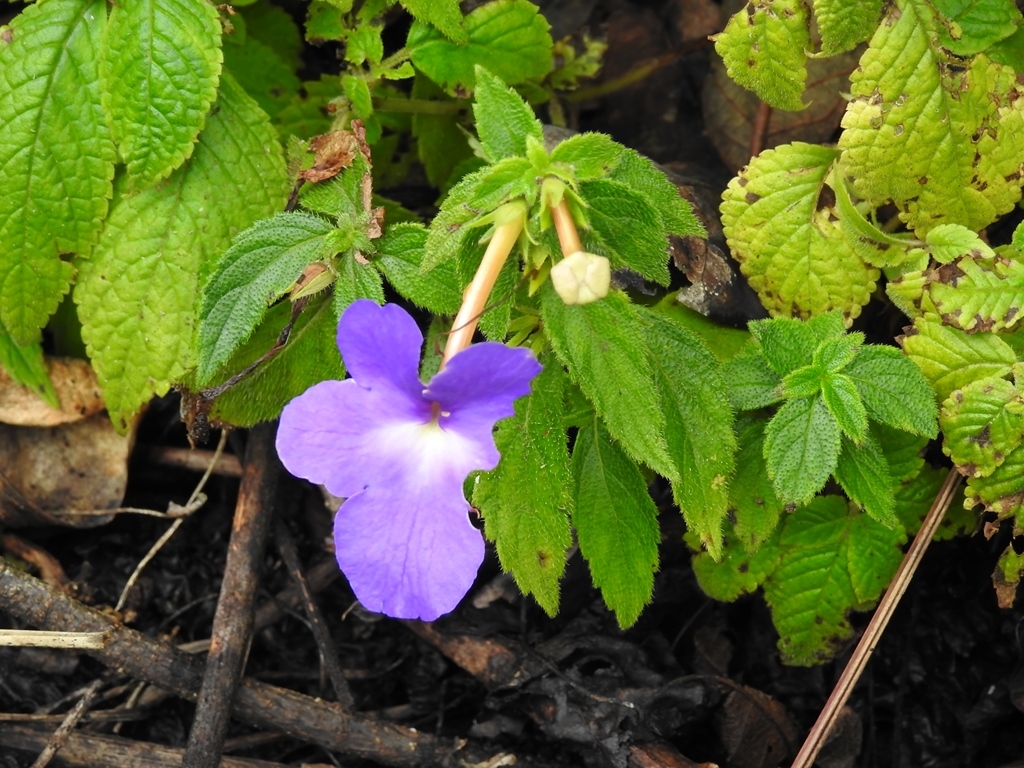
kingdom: Plantae
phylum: Tracheophyta
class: Magnoliopsida
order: Lamiales
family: Gesneriaceae
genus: Achimenes
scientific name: Achimenes longiflora
